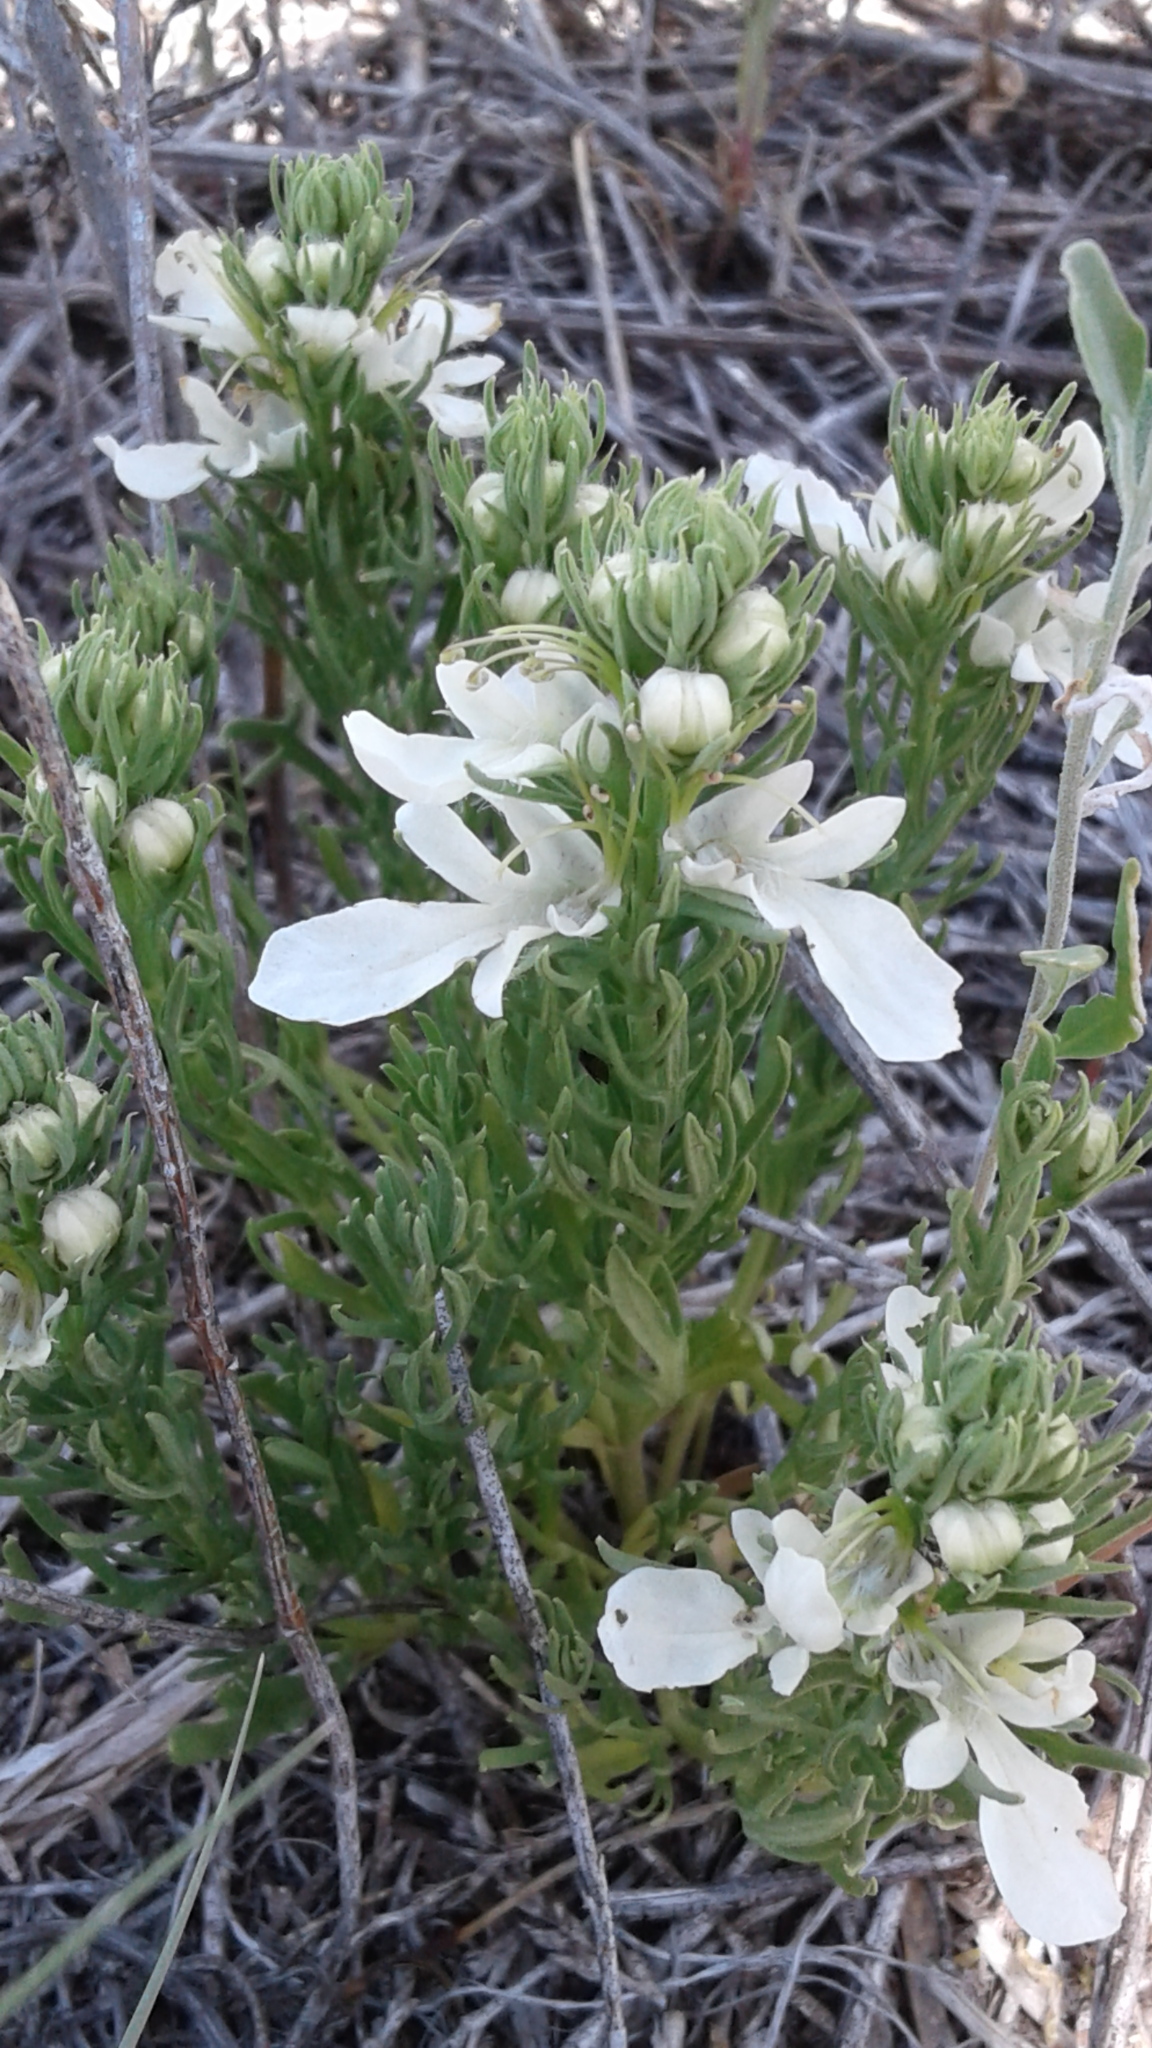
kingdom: Plantae
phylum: Tracheophyta
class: Magnoliopsida
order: Lamiales
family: Lamiaceae
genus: Teucrium
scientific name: Teucrium laciniatum
